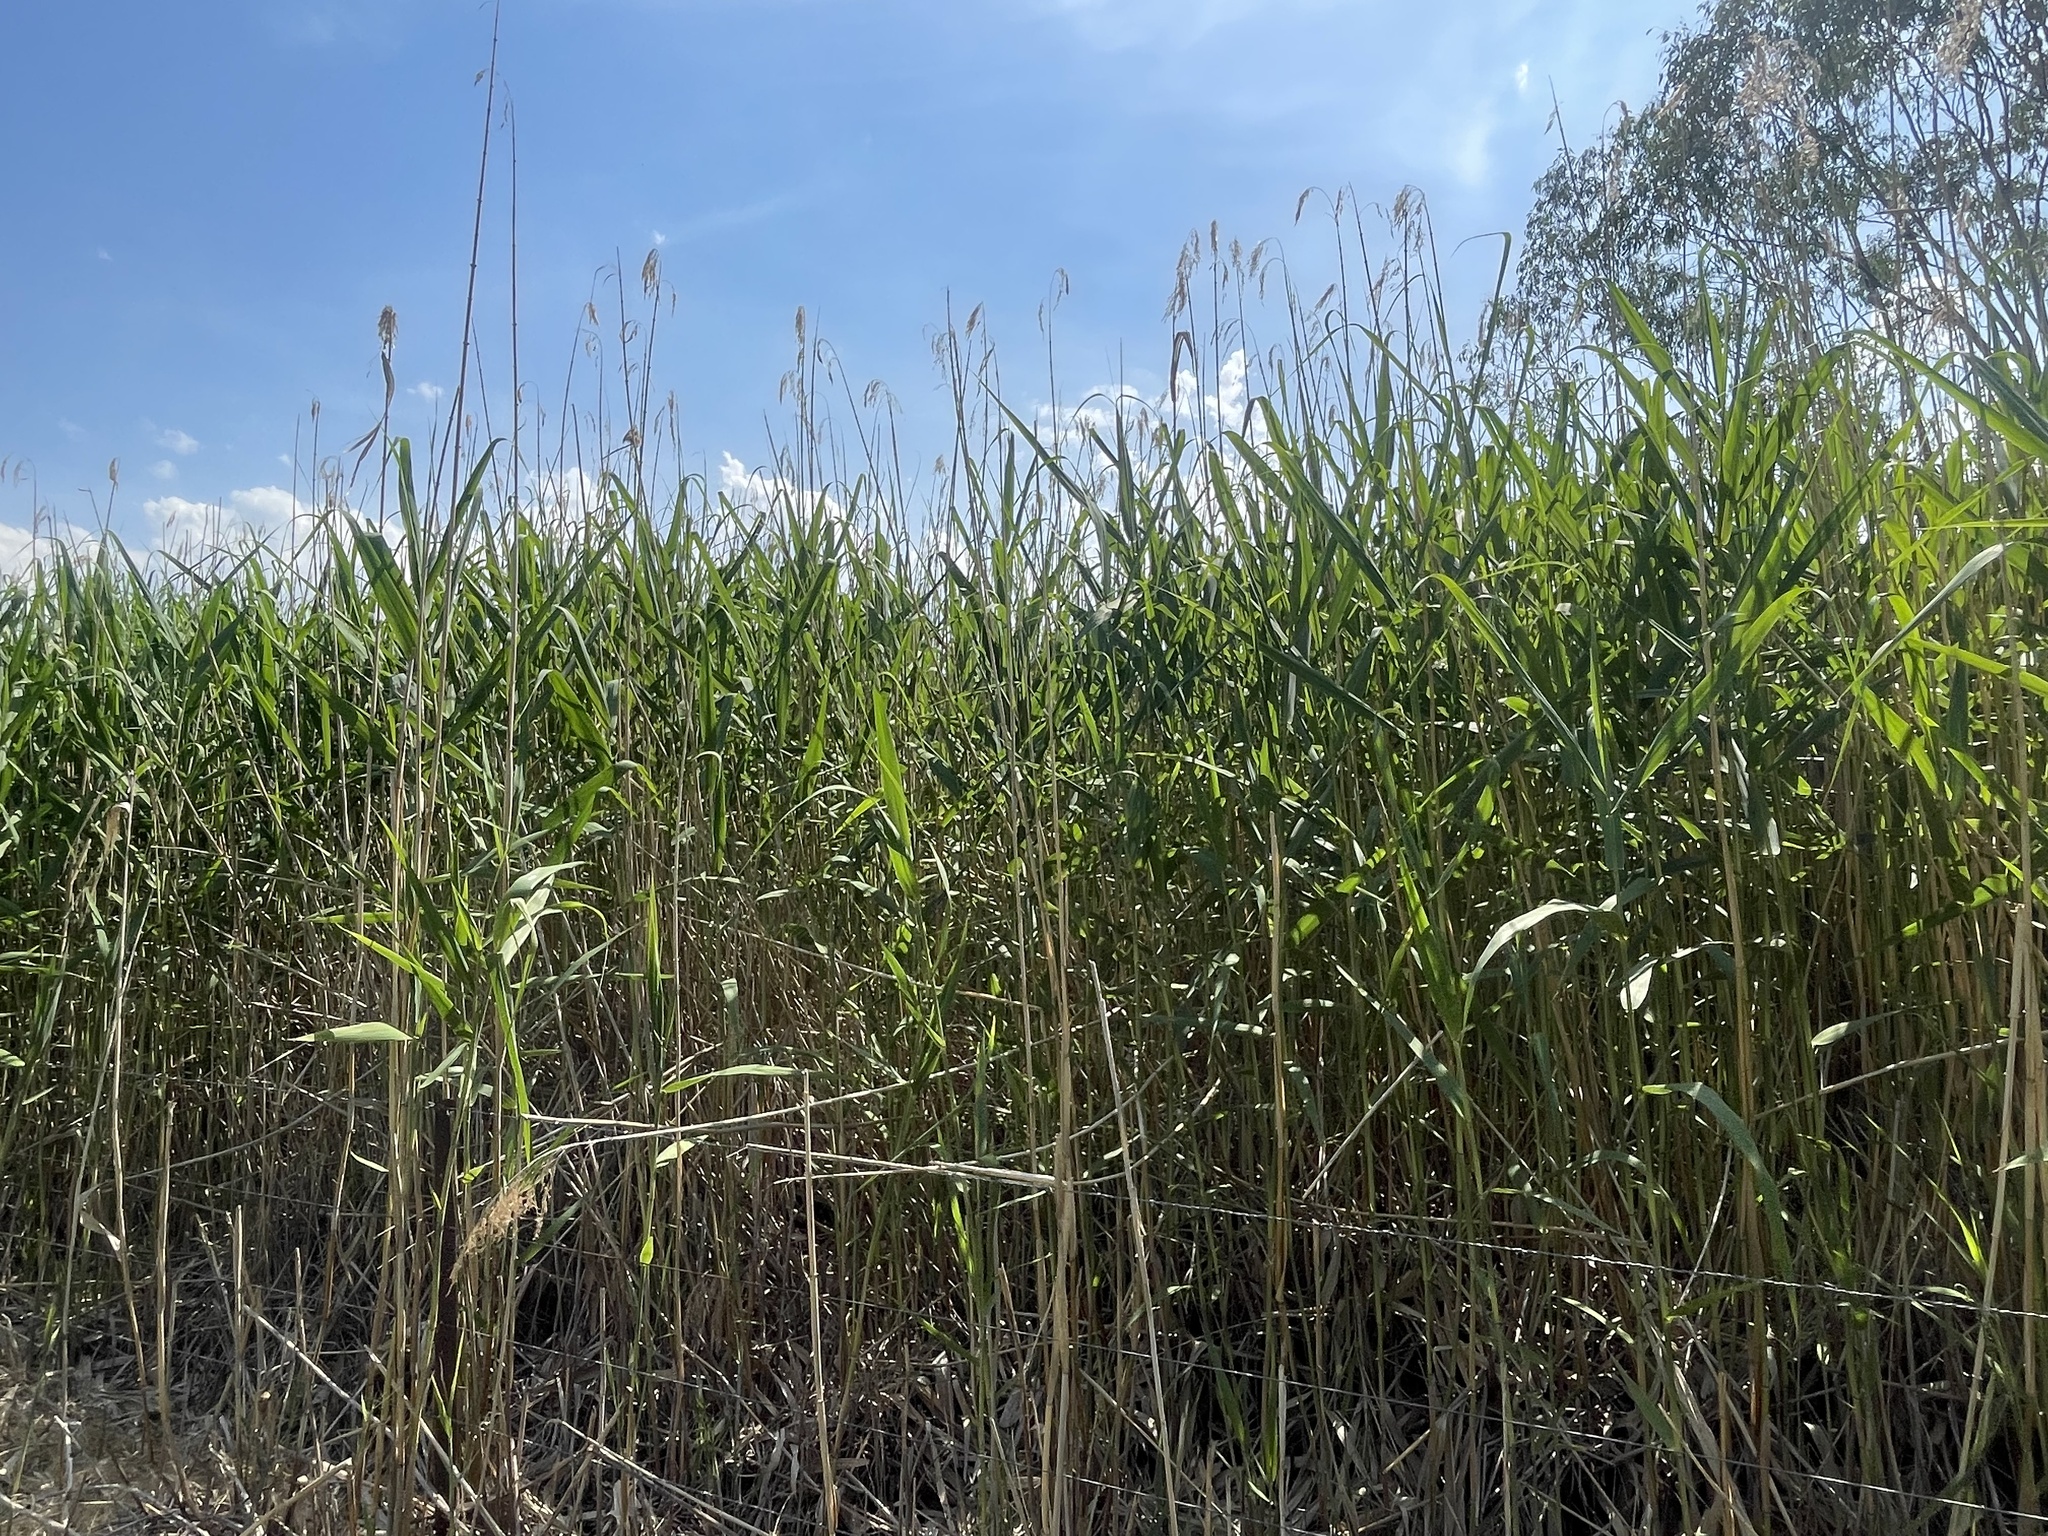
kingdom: Plantae
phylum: Tracheophyta
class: Liliopsida
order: Poales
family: Poaceae
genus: Phragmites
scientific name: Phragmites australis
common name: Common reed
